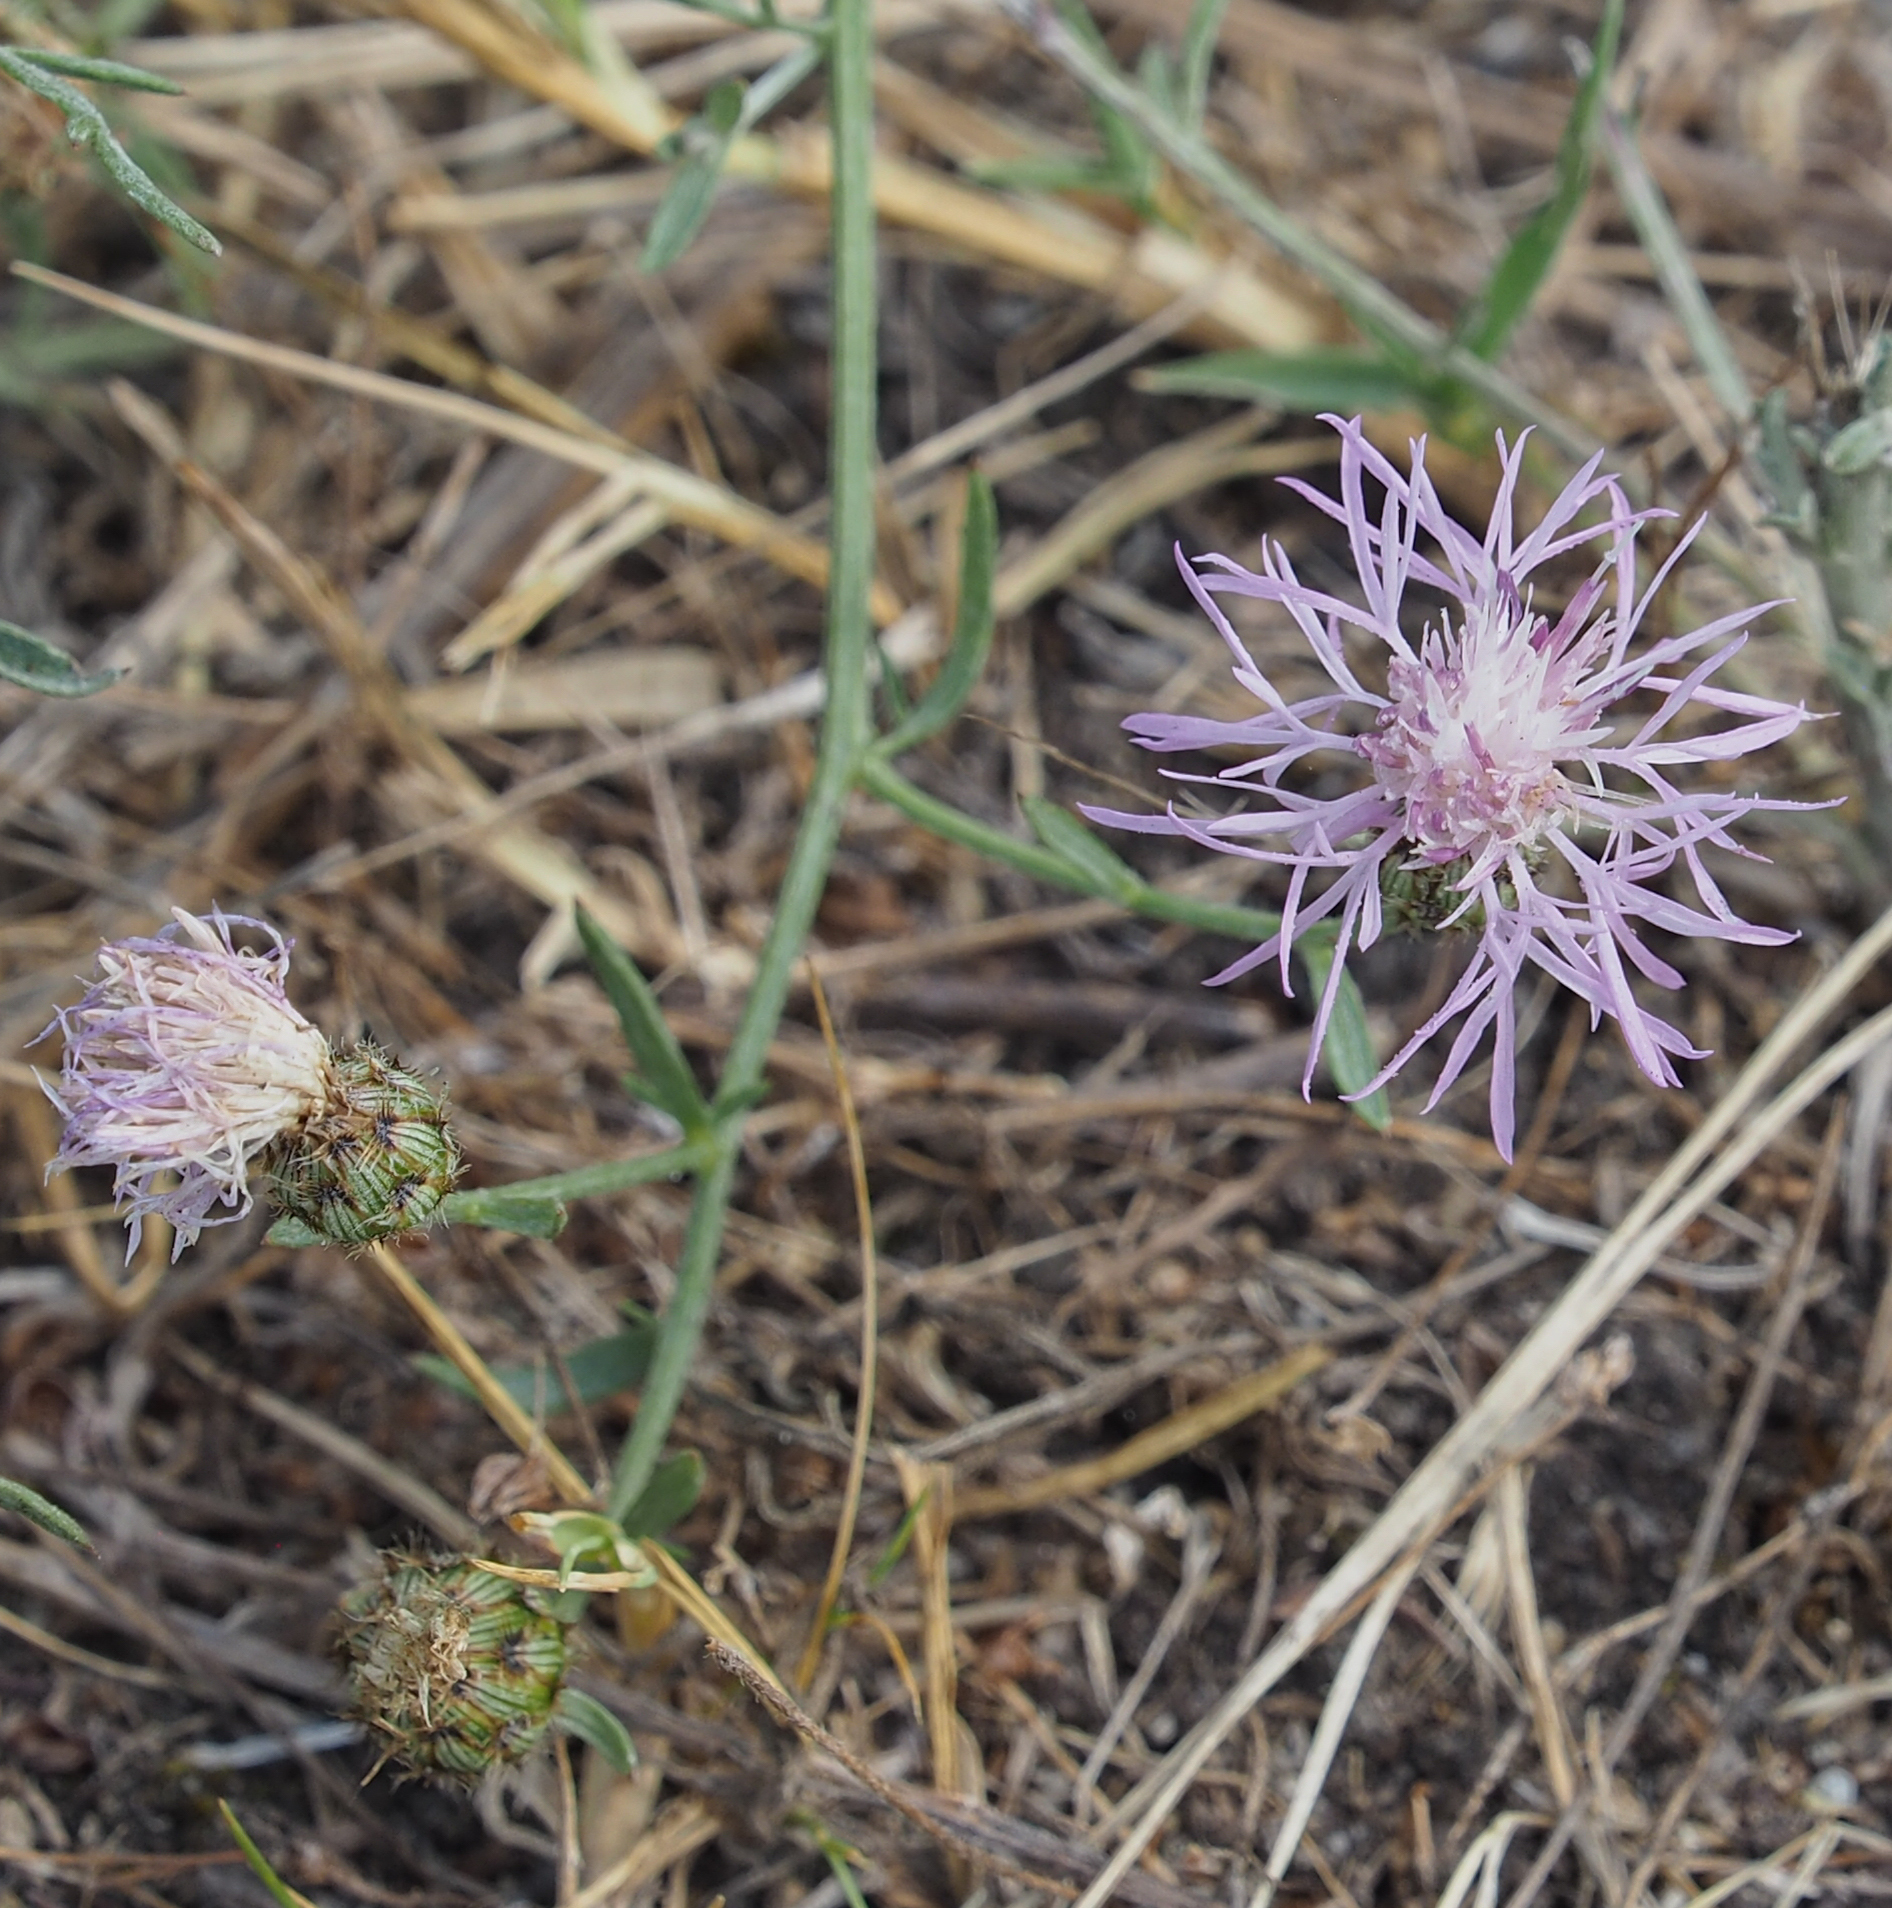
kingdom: Plantae
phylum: Tracheophyta
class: Magnoliopsida
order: Asterales
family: Asteraceae
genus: Centaurea
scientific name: Centaurea stoebe
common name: Spotted knapweed
